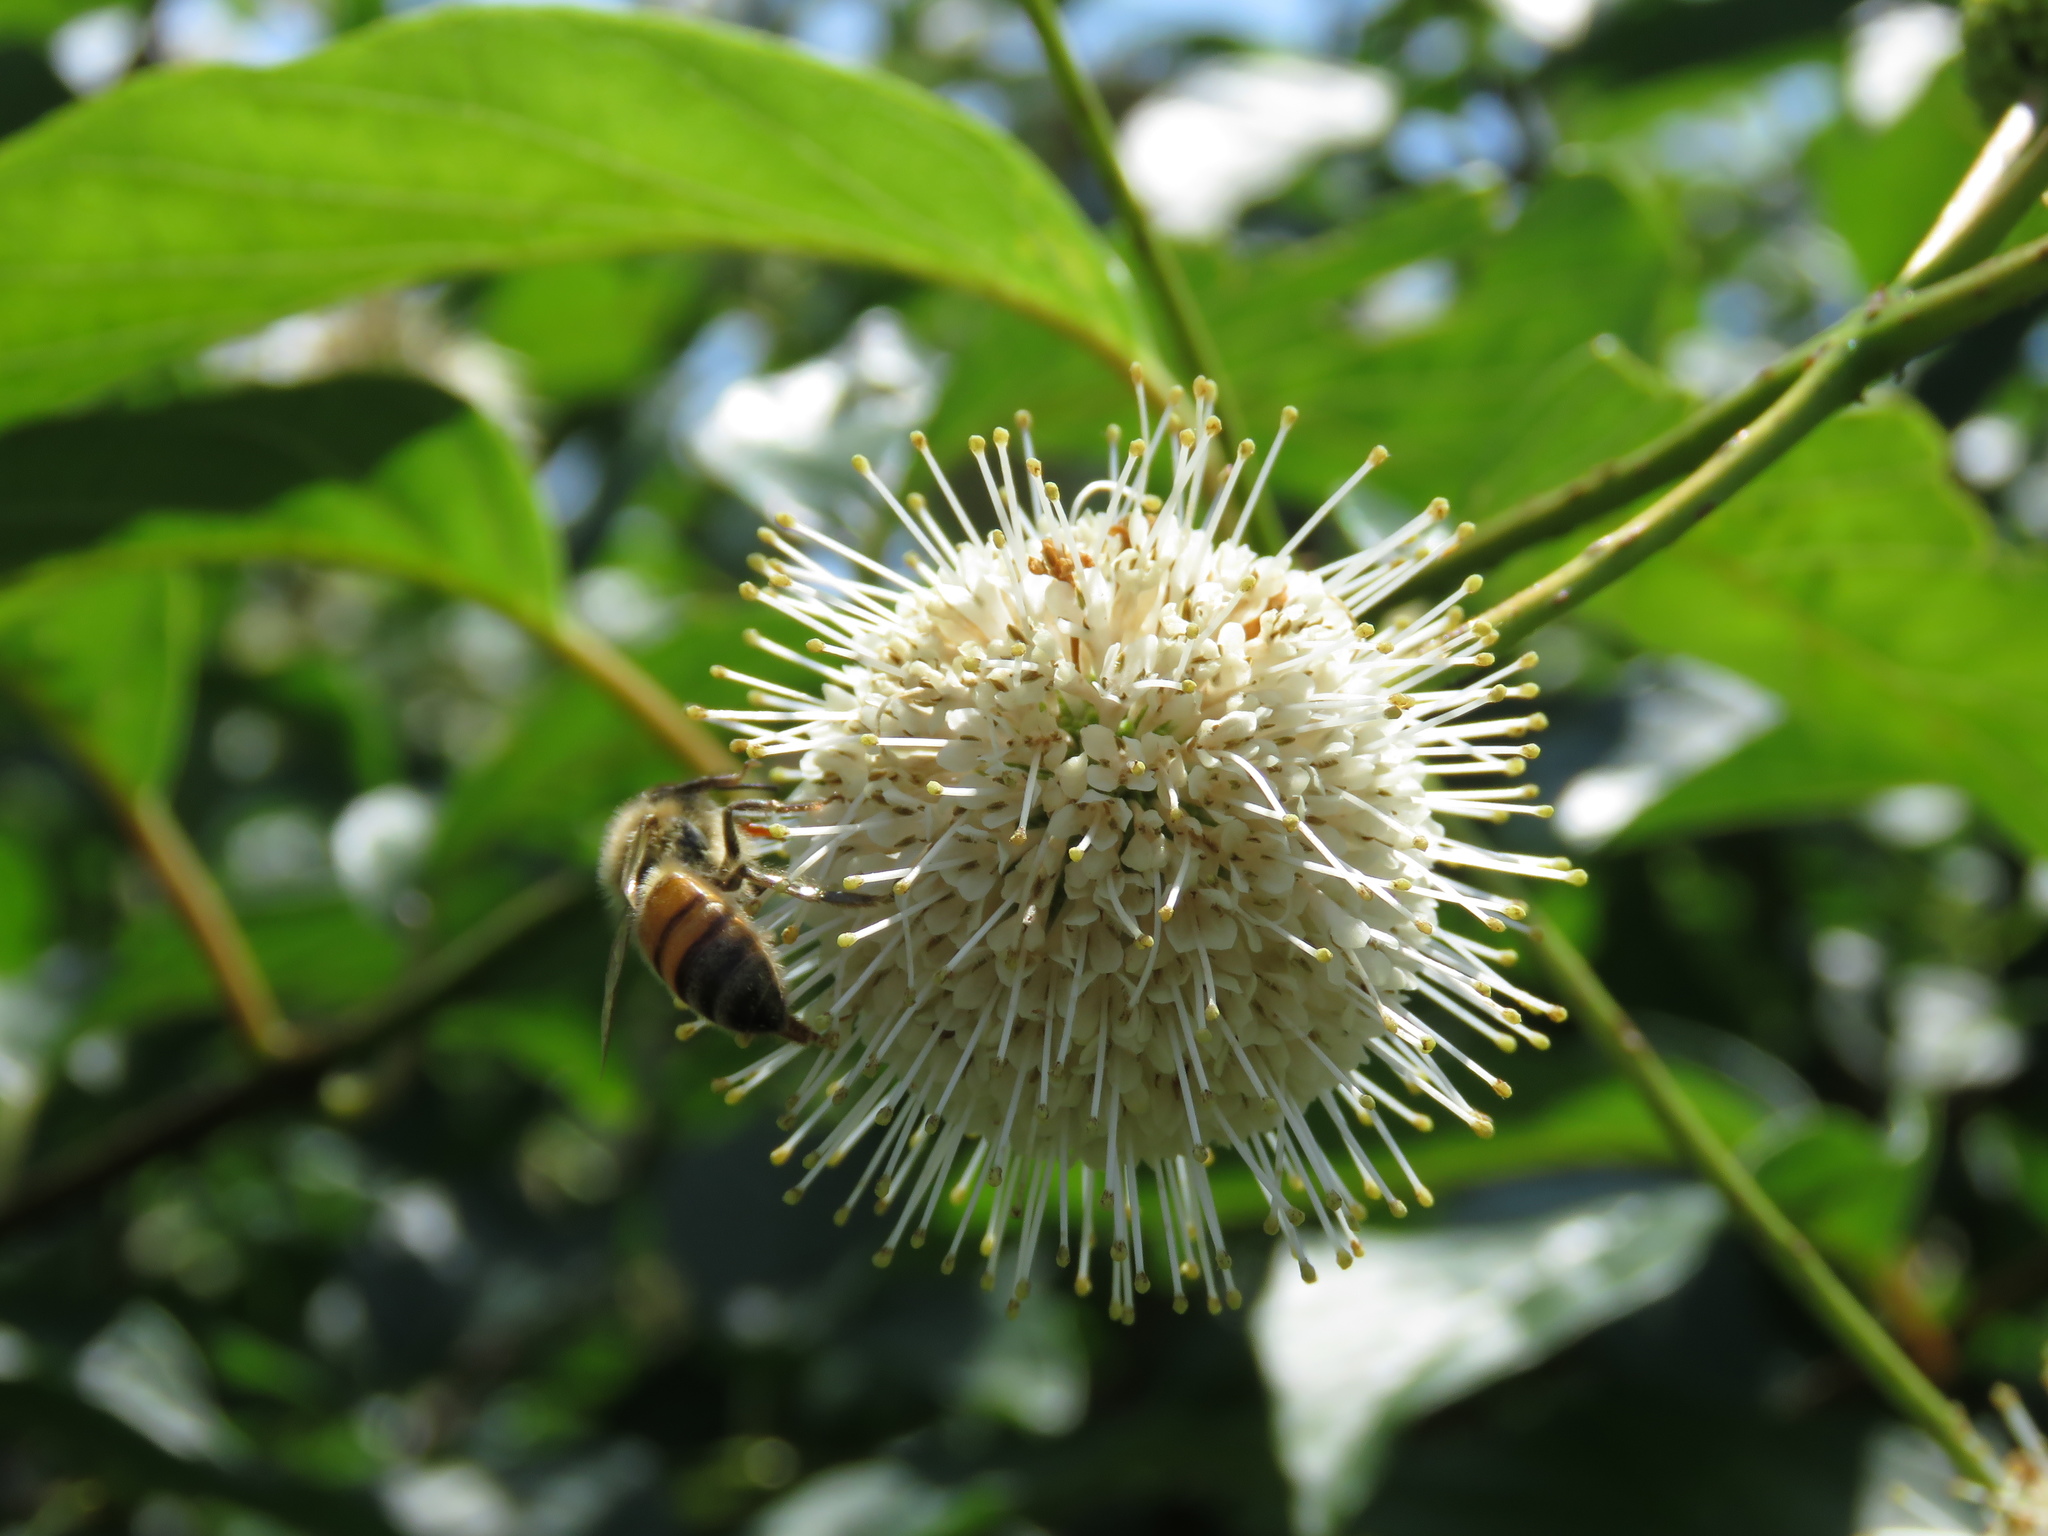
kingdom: Plantae
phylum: Tracheophyta
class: Magnoliopsida
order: Gentianales
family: Rubiaceae
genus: Cephalanthus
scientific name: Cephalanthus occidentalis
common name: Button-willow
